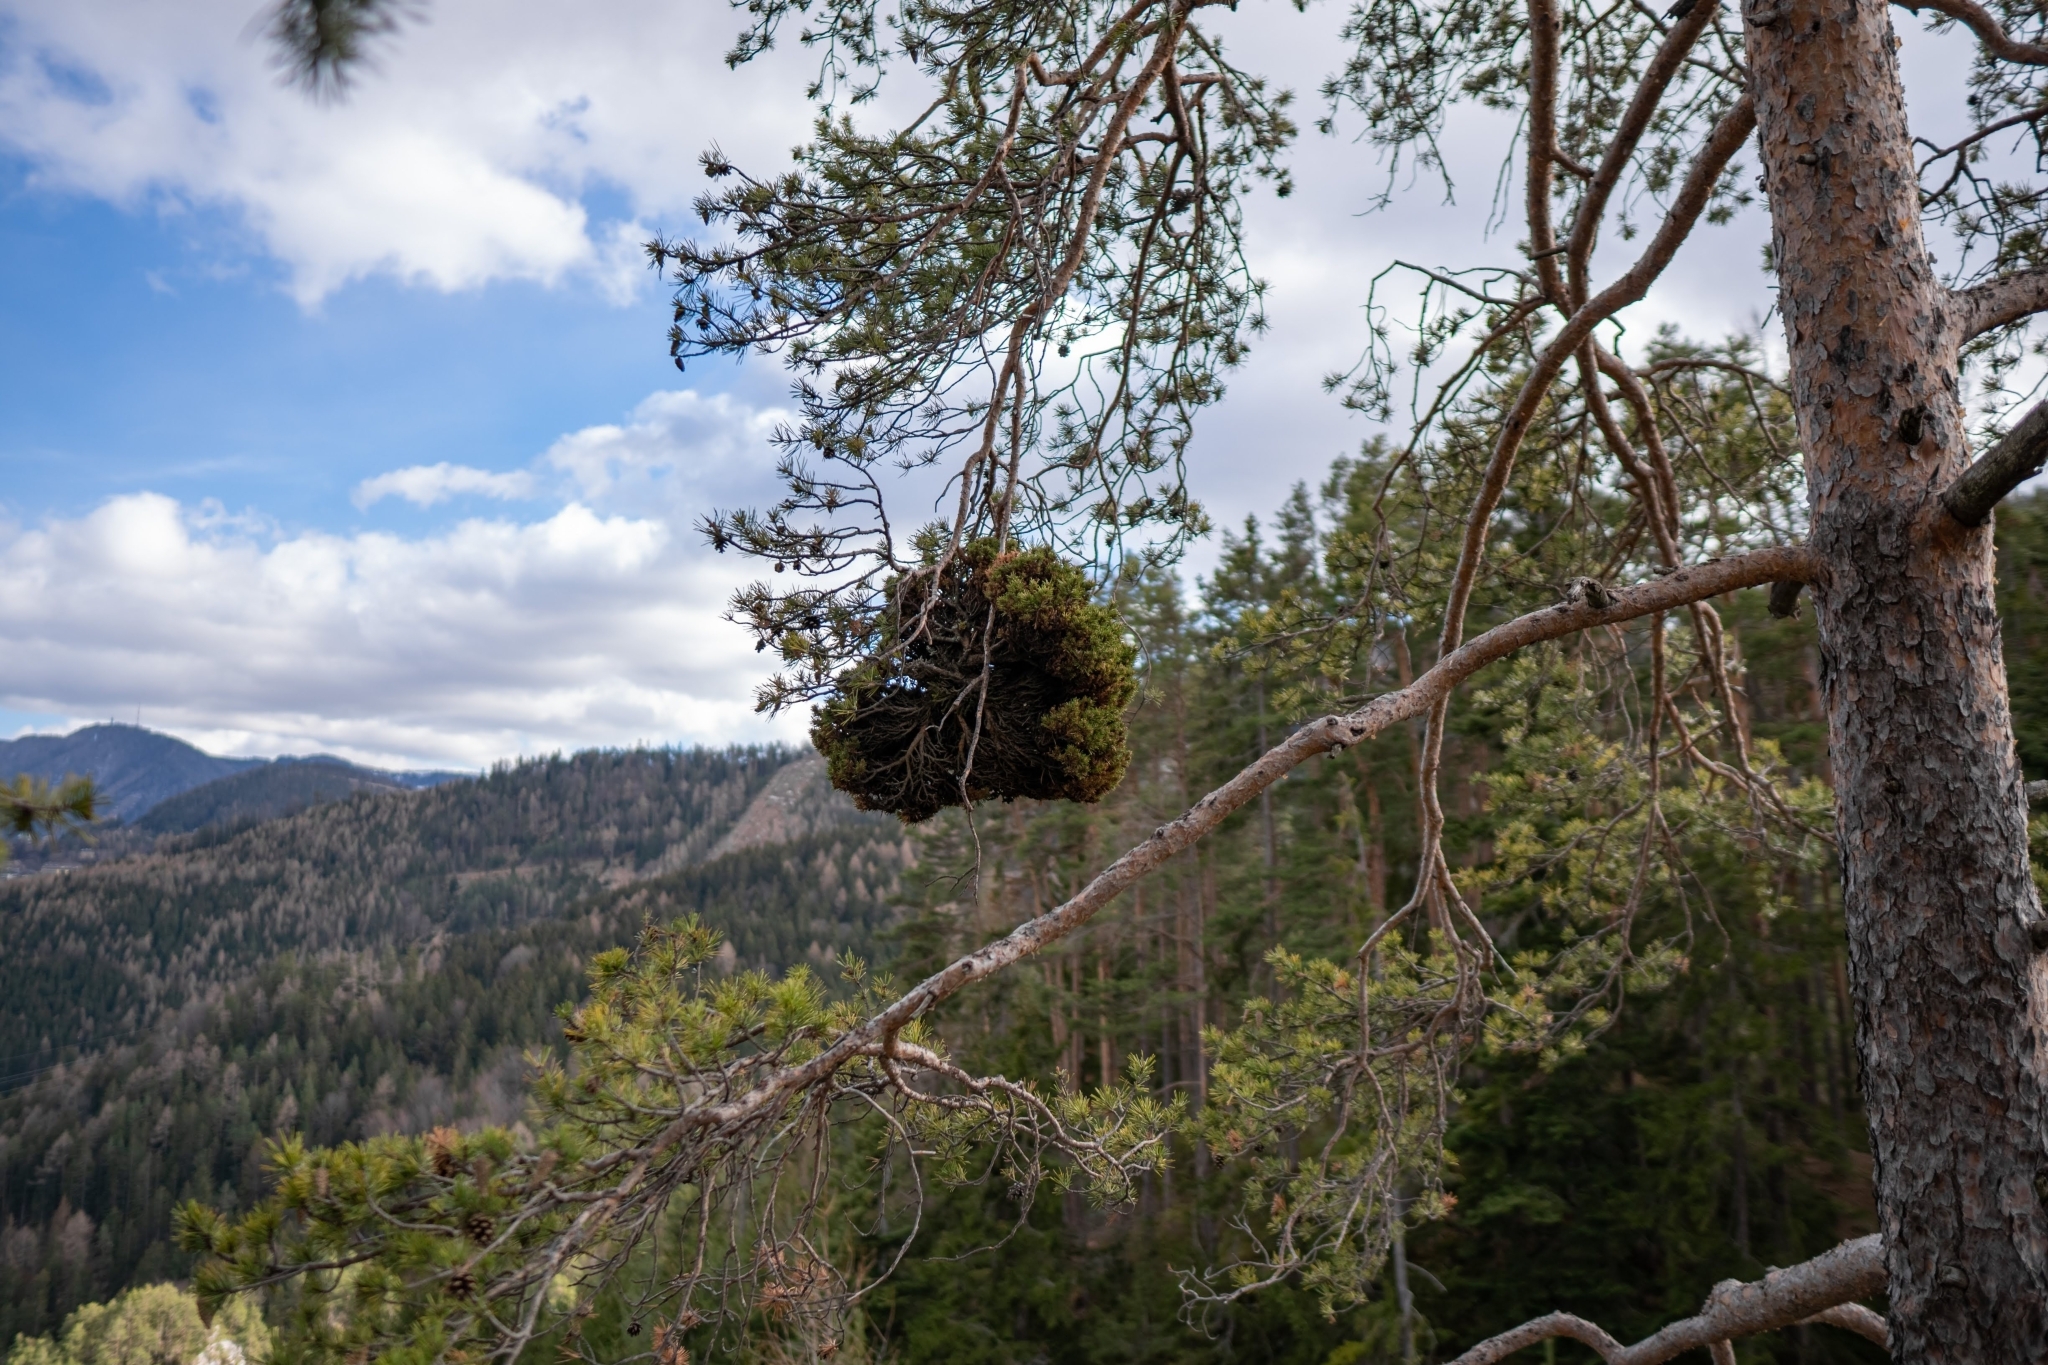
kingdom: Plantae
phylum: Tracheophyta
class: Pinopsida
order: Pinales
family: Pinaceae
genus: Pinus
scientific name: Pinus sylvestris
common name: Scots pine
